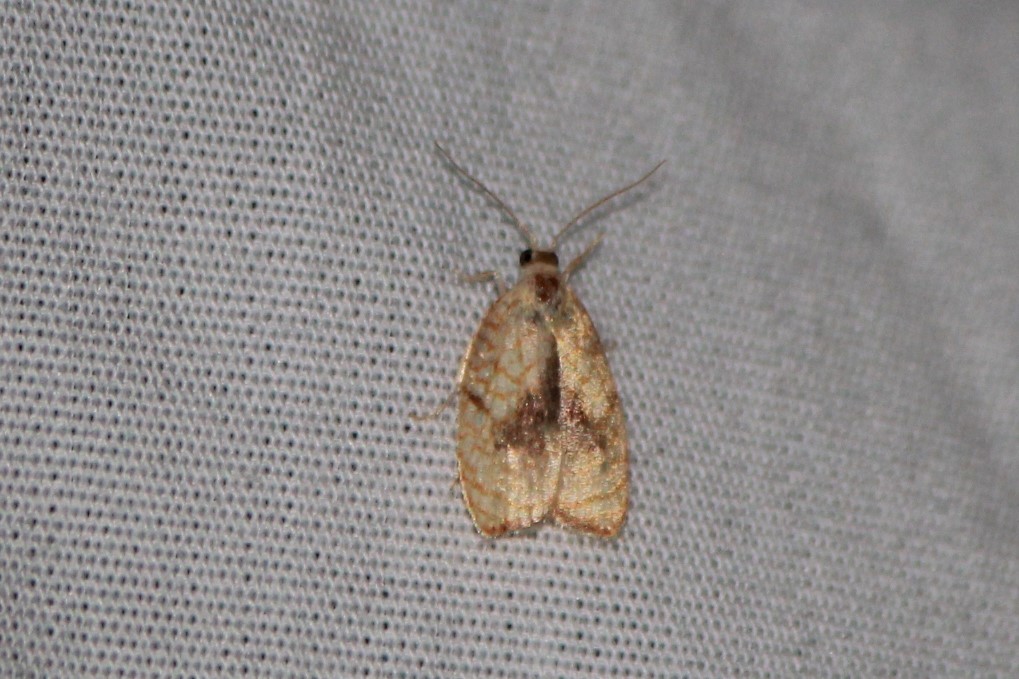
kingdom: Animalia
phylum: Arthropoda
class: Insecta
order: Lepidoptera
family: Tortricidae
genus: Acleris
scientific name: Acleris forsskaleana
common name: Maple button
